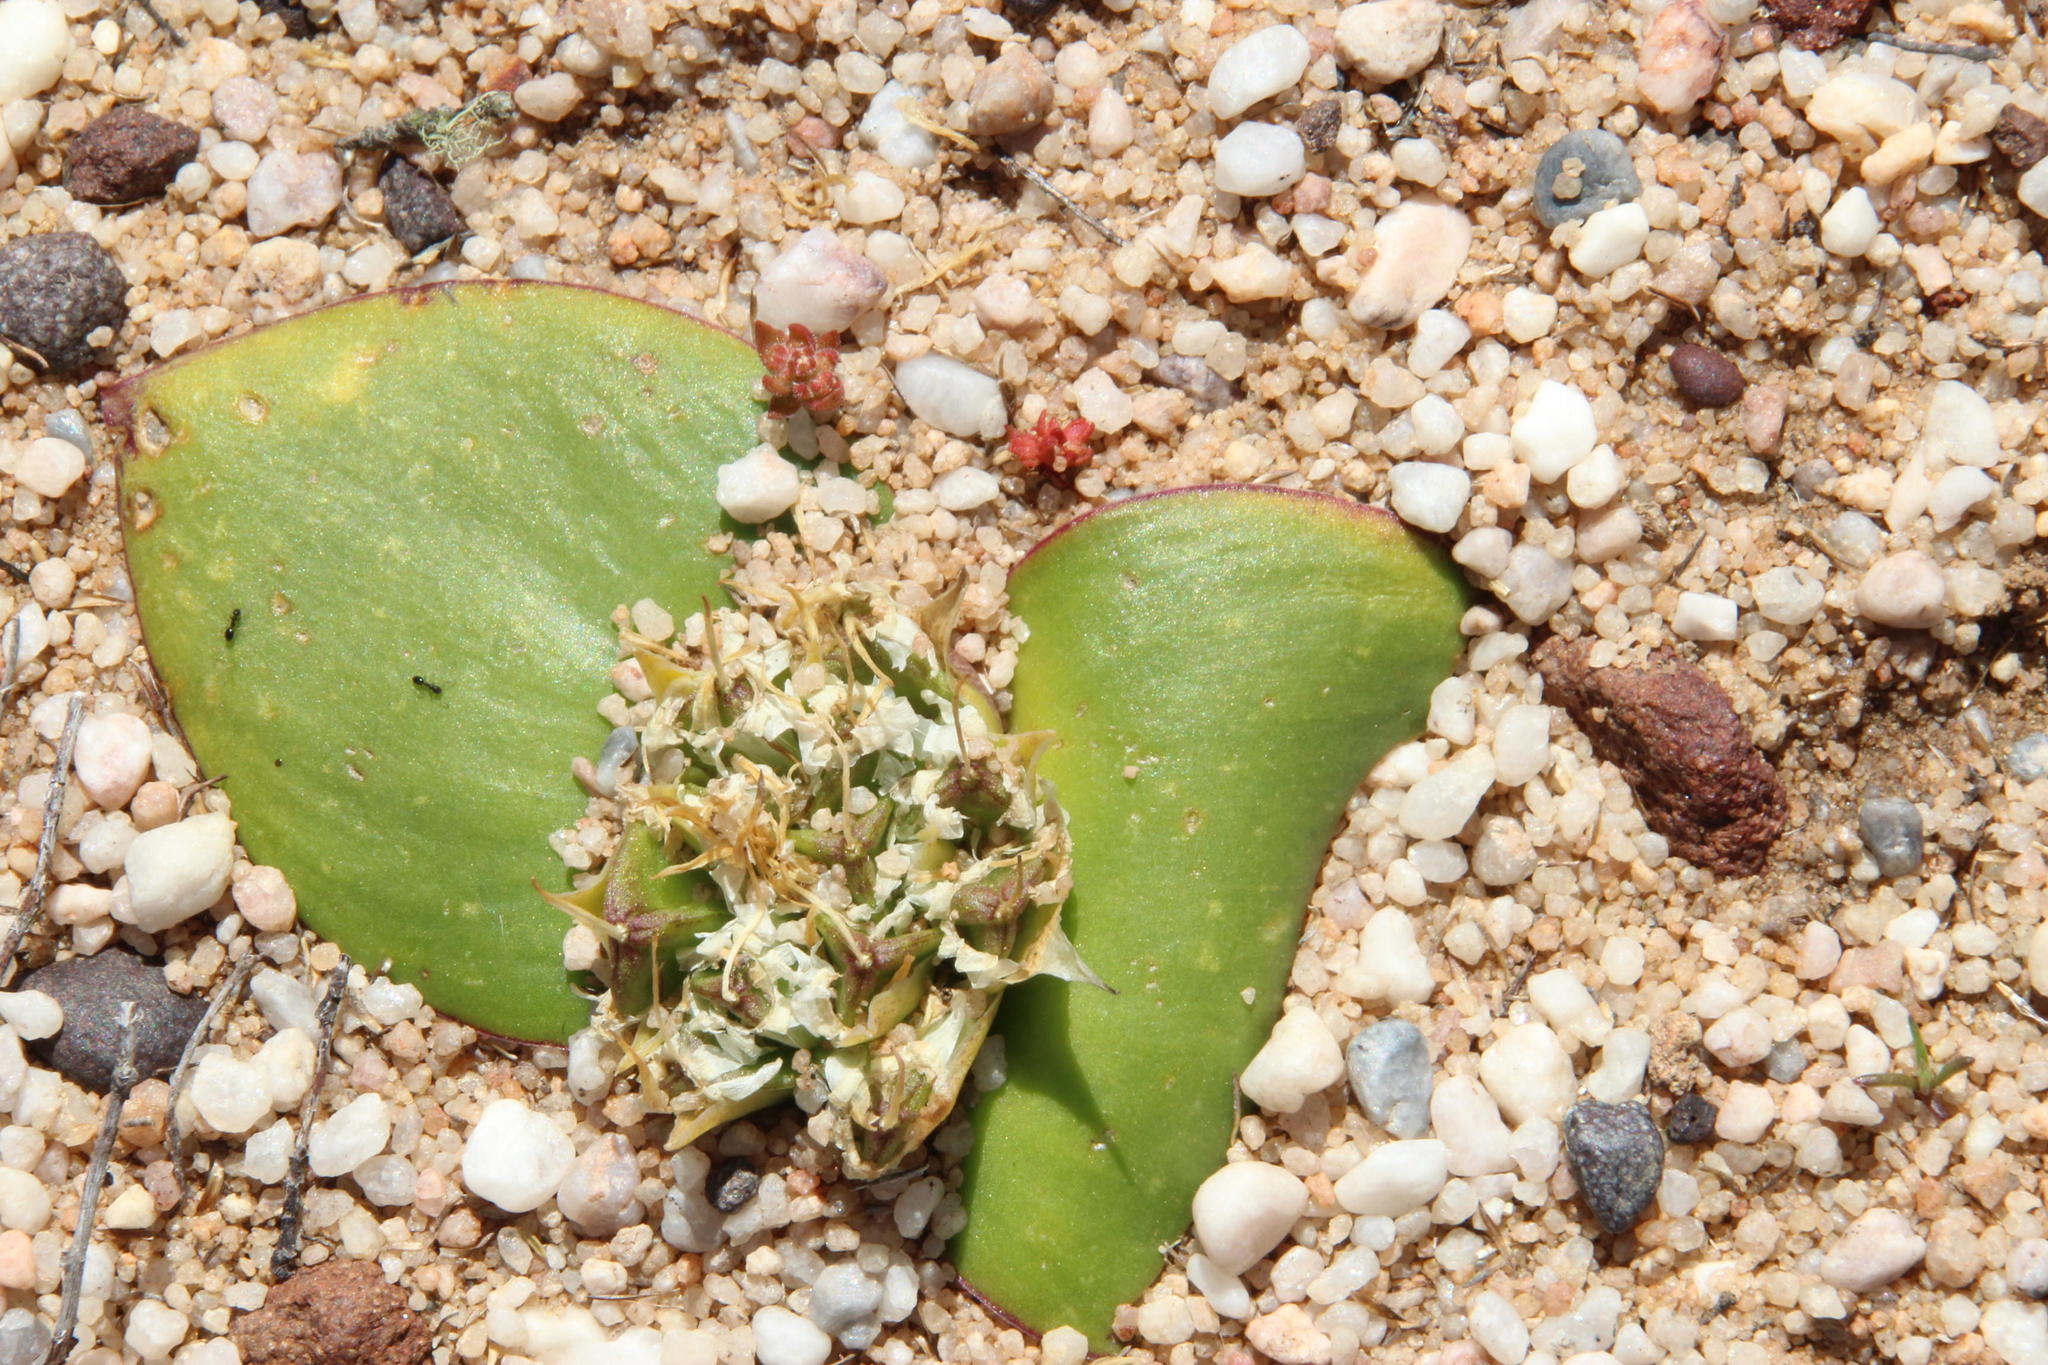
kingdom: Plantae
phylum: Tracheophyta
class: Liliopsida
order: Asparagales
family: Asparagaceae
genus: Massonia
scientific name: Massonia triflora
